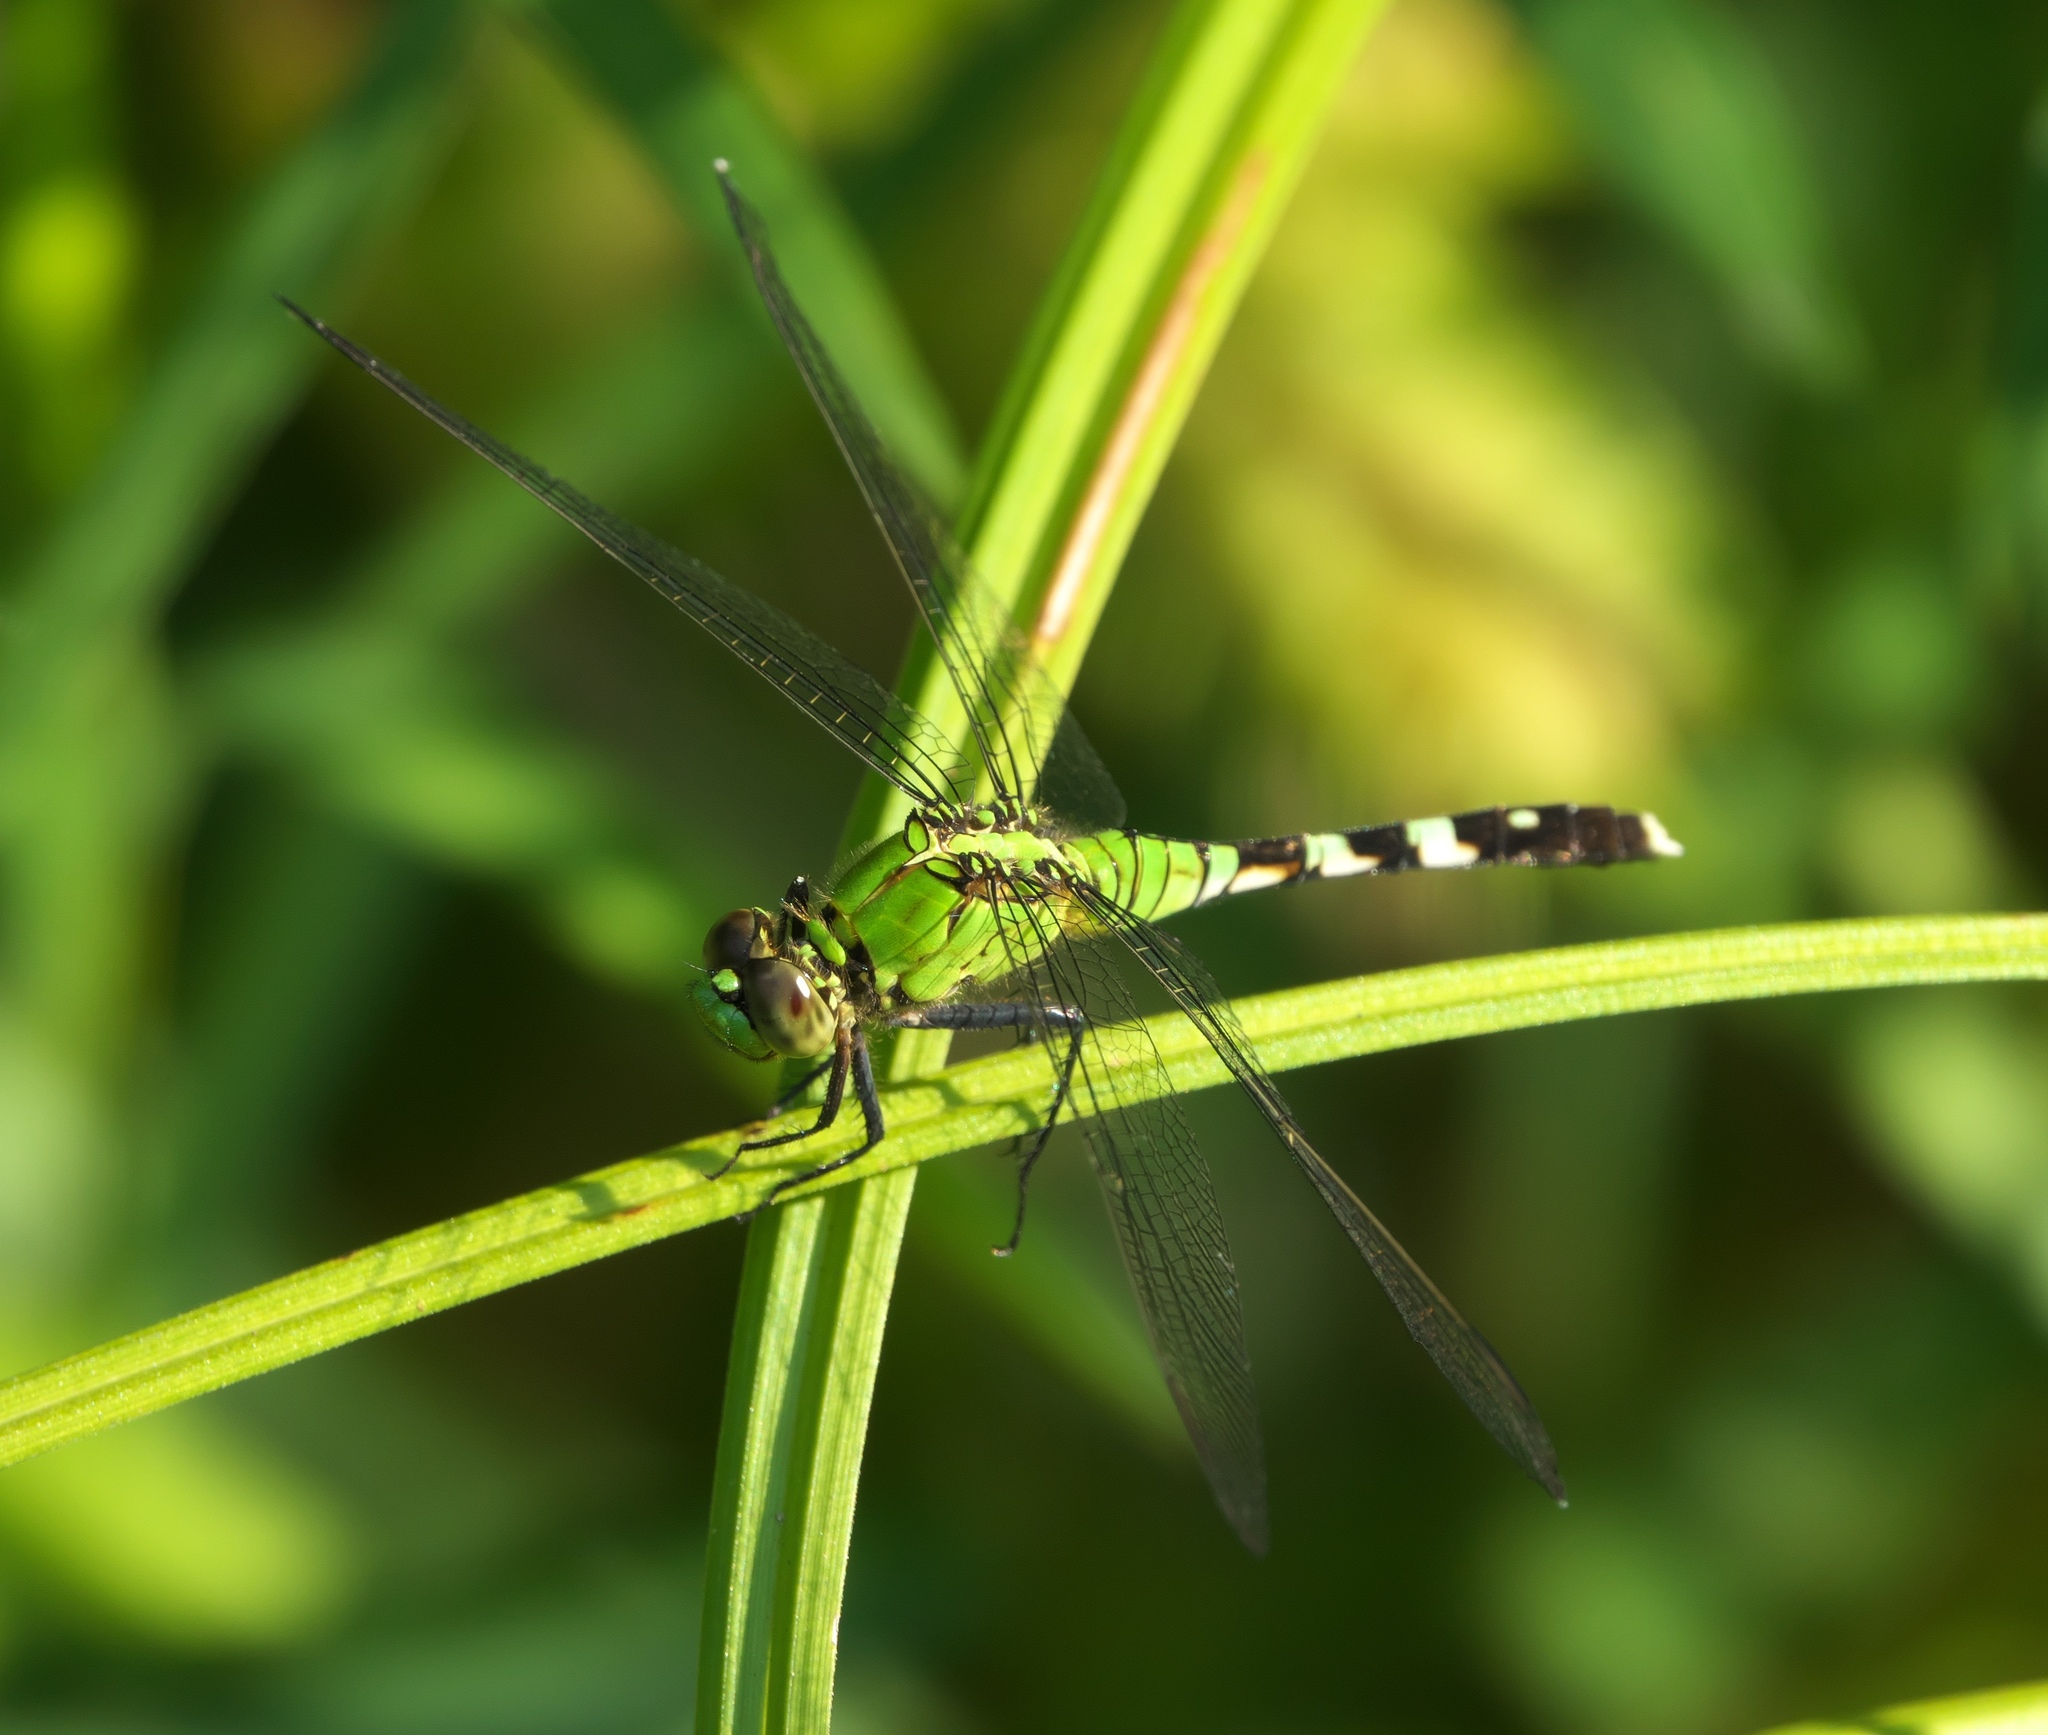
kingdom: Animalia
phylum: Arthropoda
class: Insecta
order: Odonata
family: Libellulidae
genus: Erythemis
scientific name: Erythemis simplicicollis
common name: Eastern pondhawk
